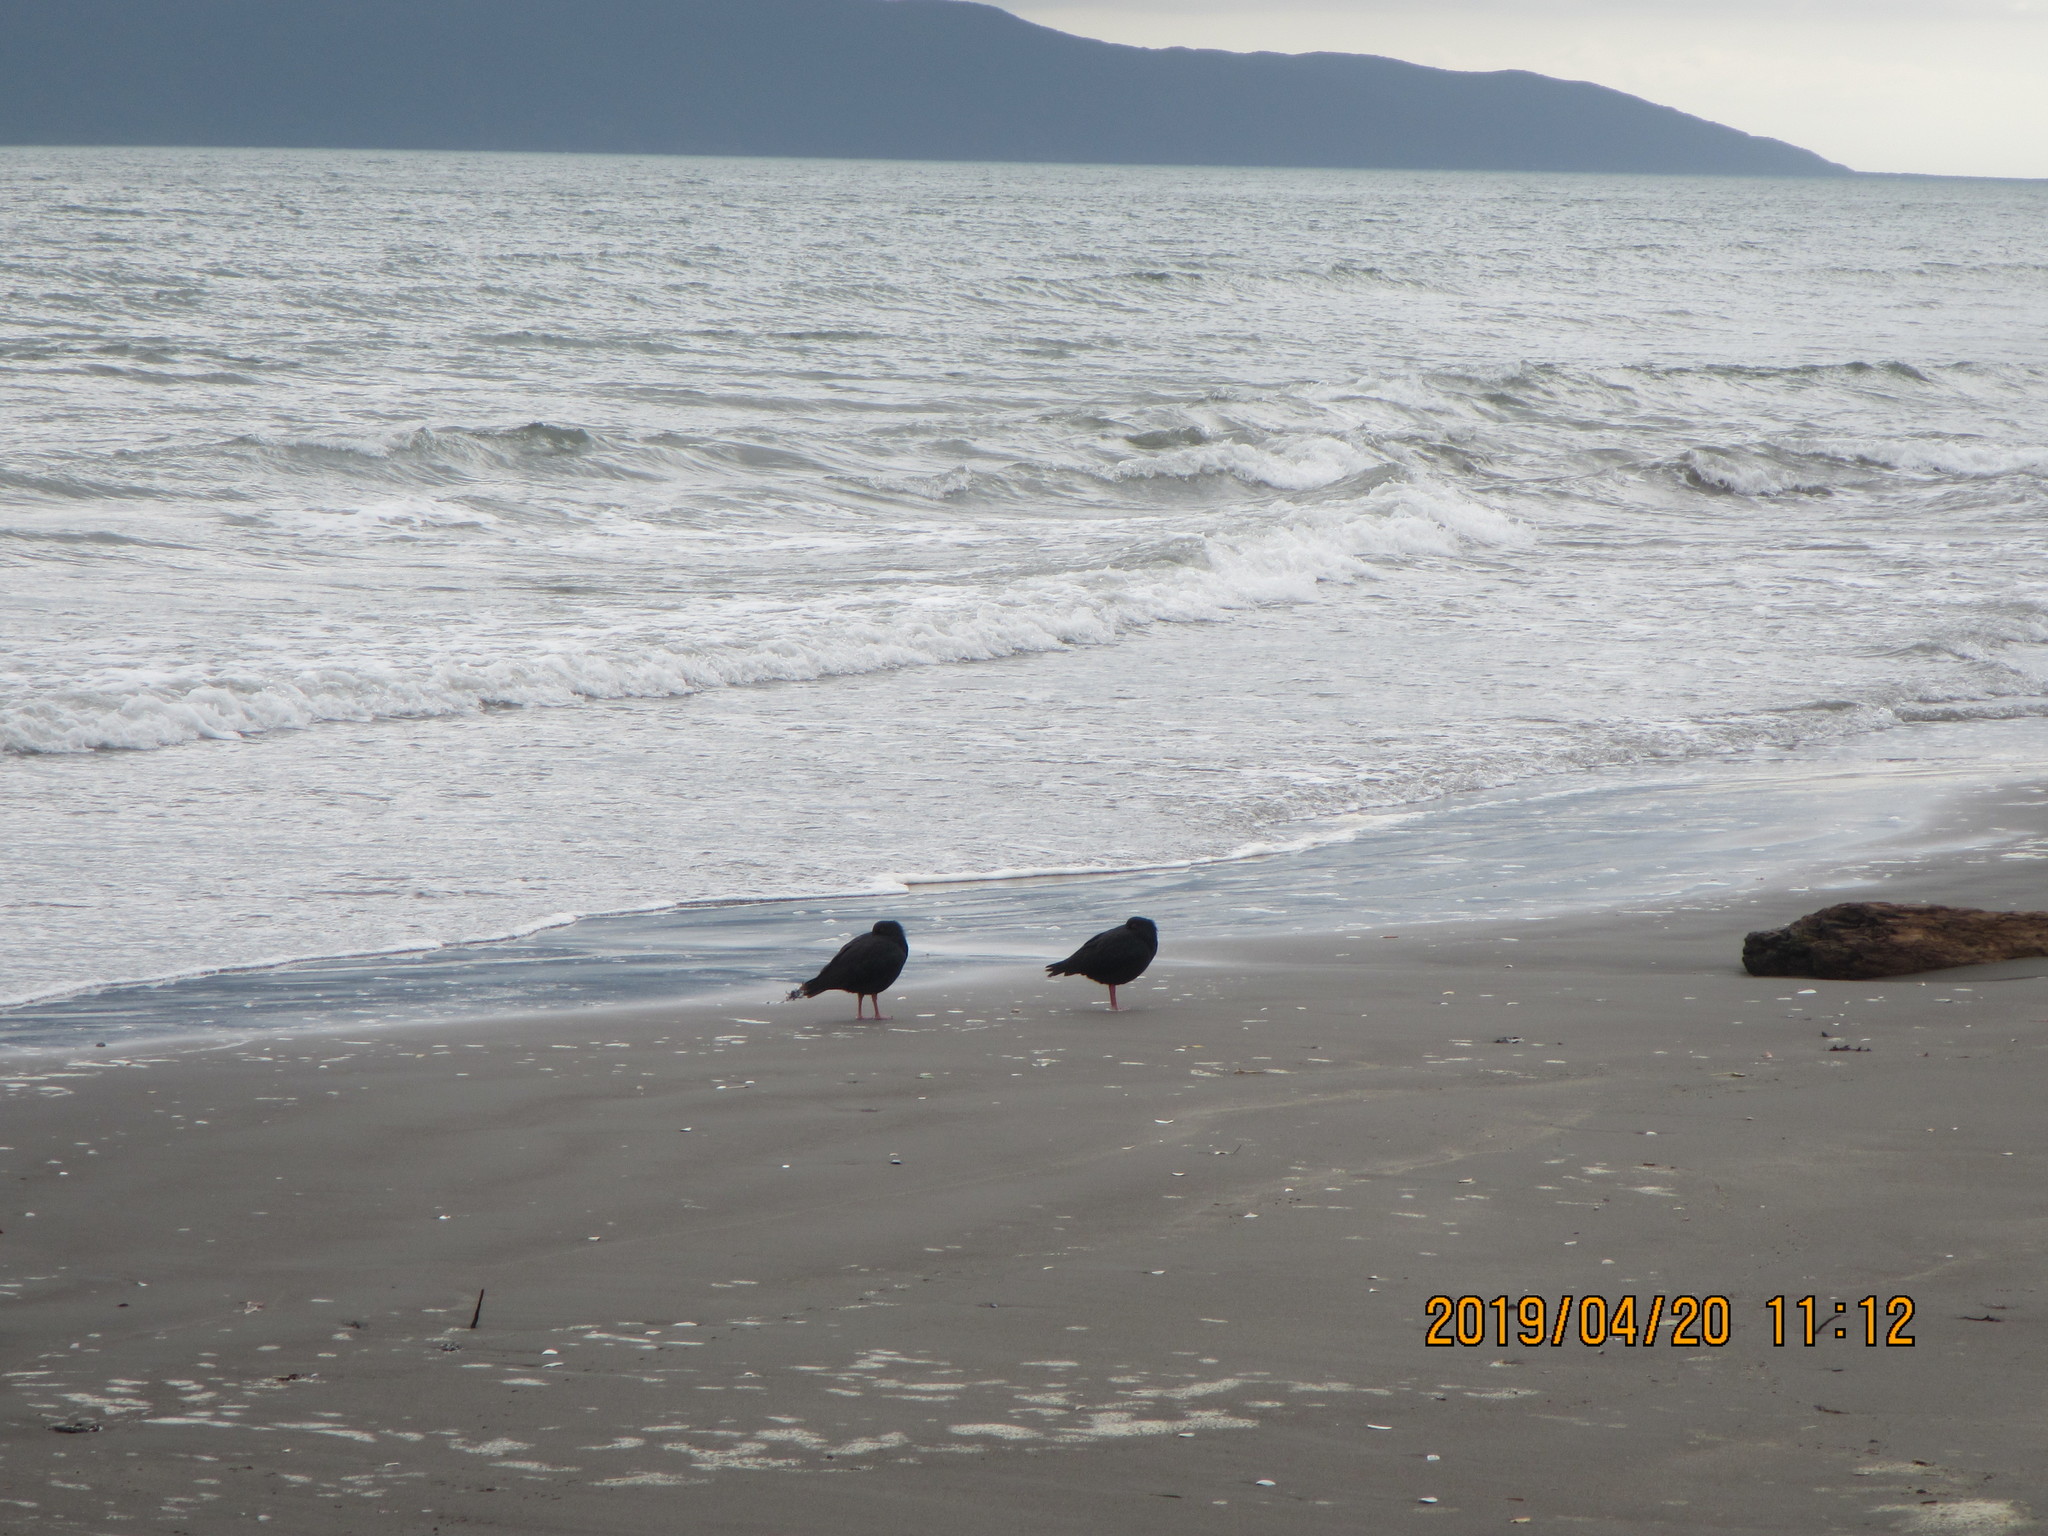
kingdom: Animalia
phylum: Chordata
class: Aves
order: Charadriiformes
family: Haematopodidae
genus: Haematopus
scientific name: Haematopus unicolor
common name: Variable oystercatcher
